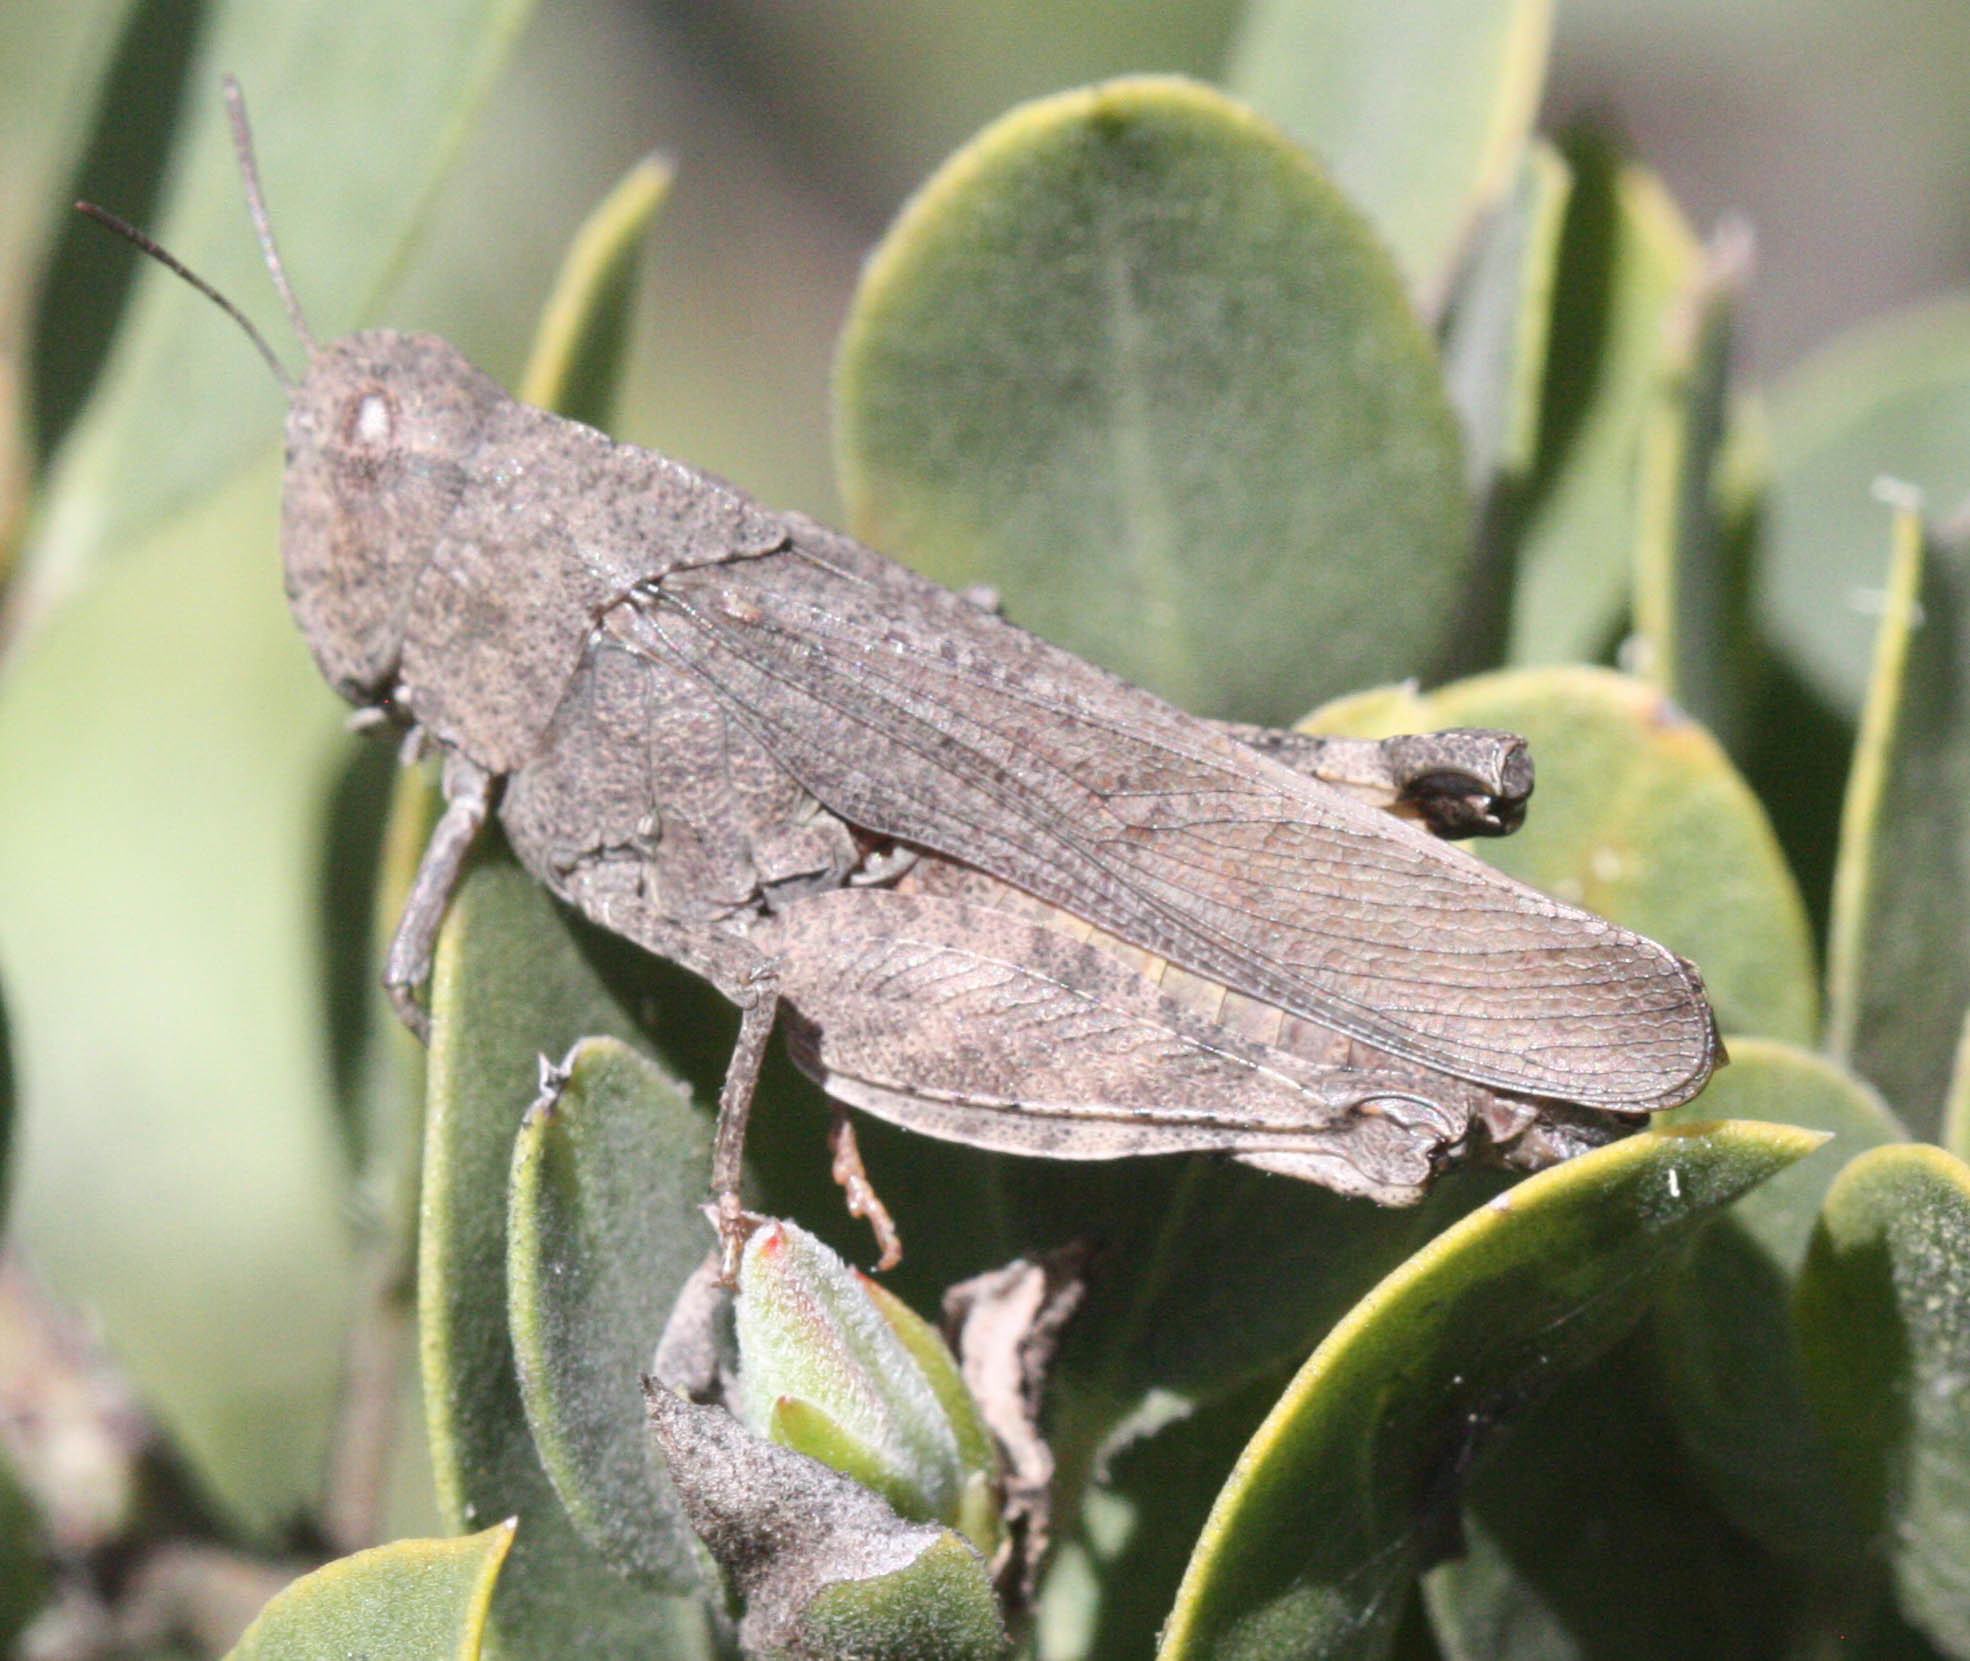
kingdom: Animalia
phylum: Arthropoda
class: Insecta
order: Orthoptera
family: Acrididae
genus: Chimarocephala
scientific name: Chimarocephala pacifica
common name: Painted meadow grasshopper
